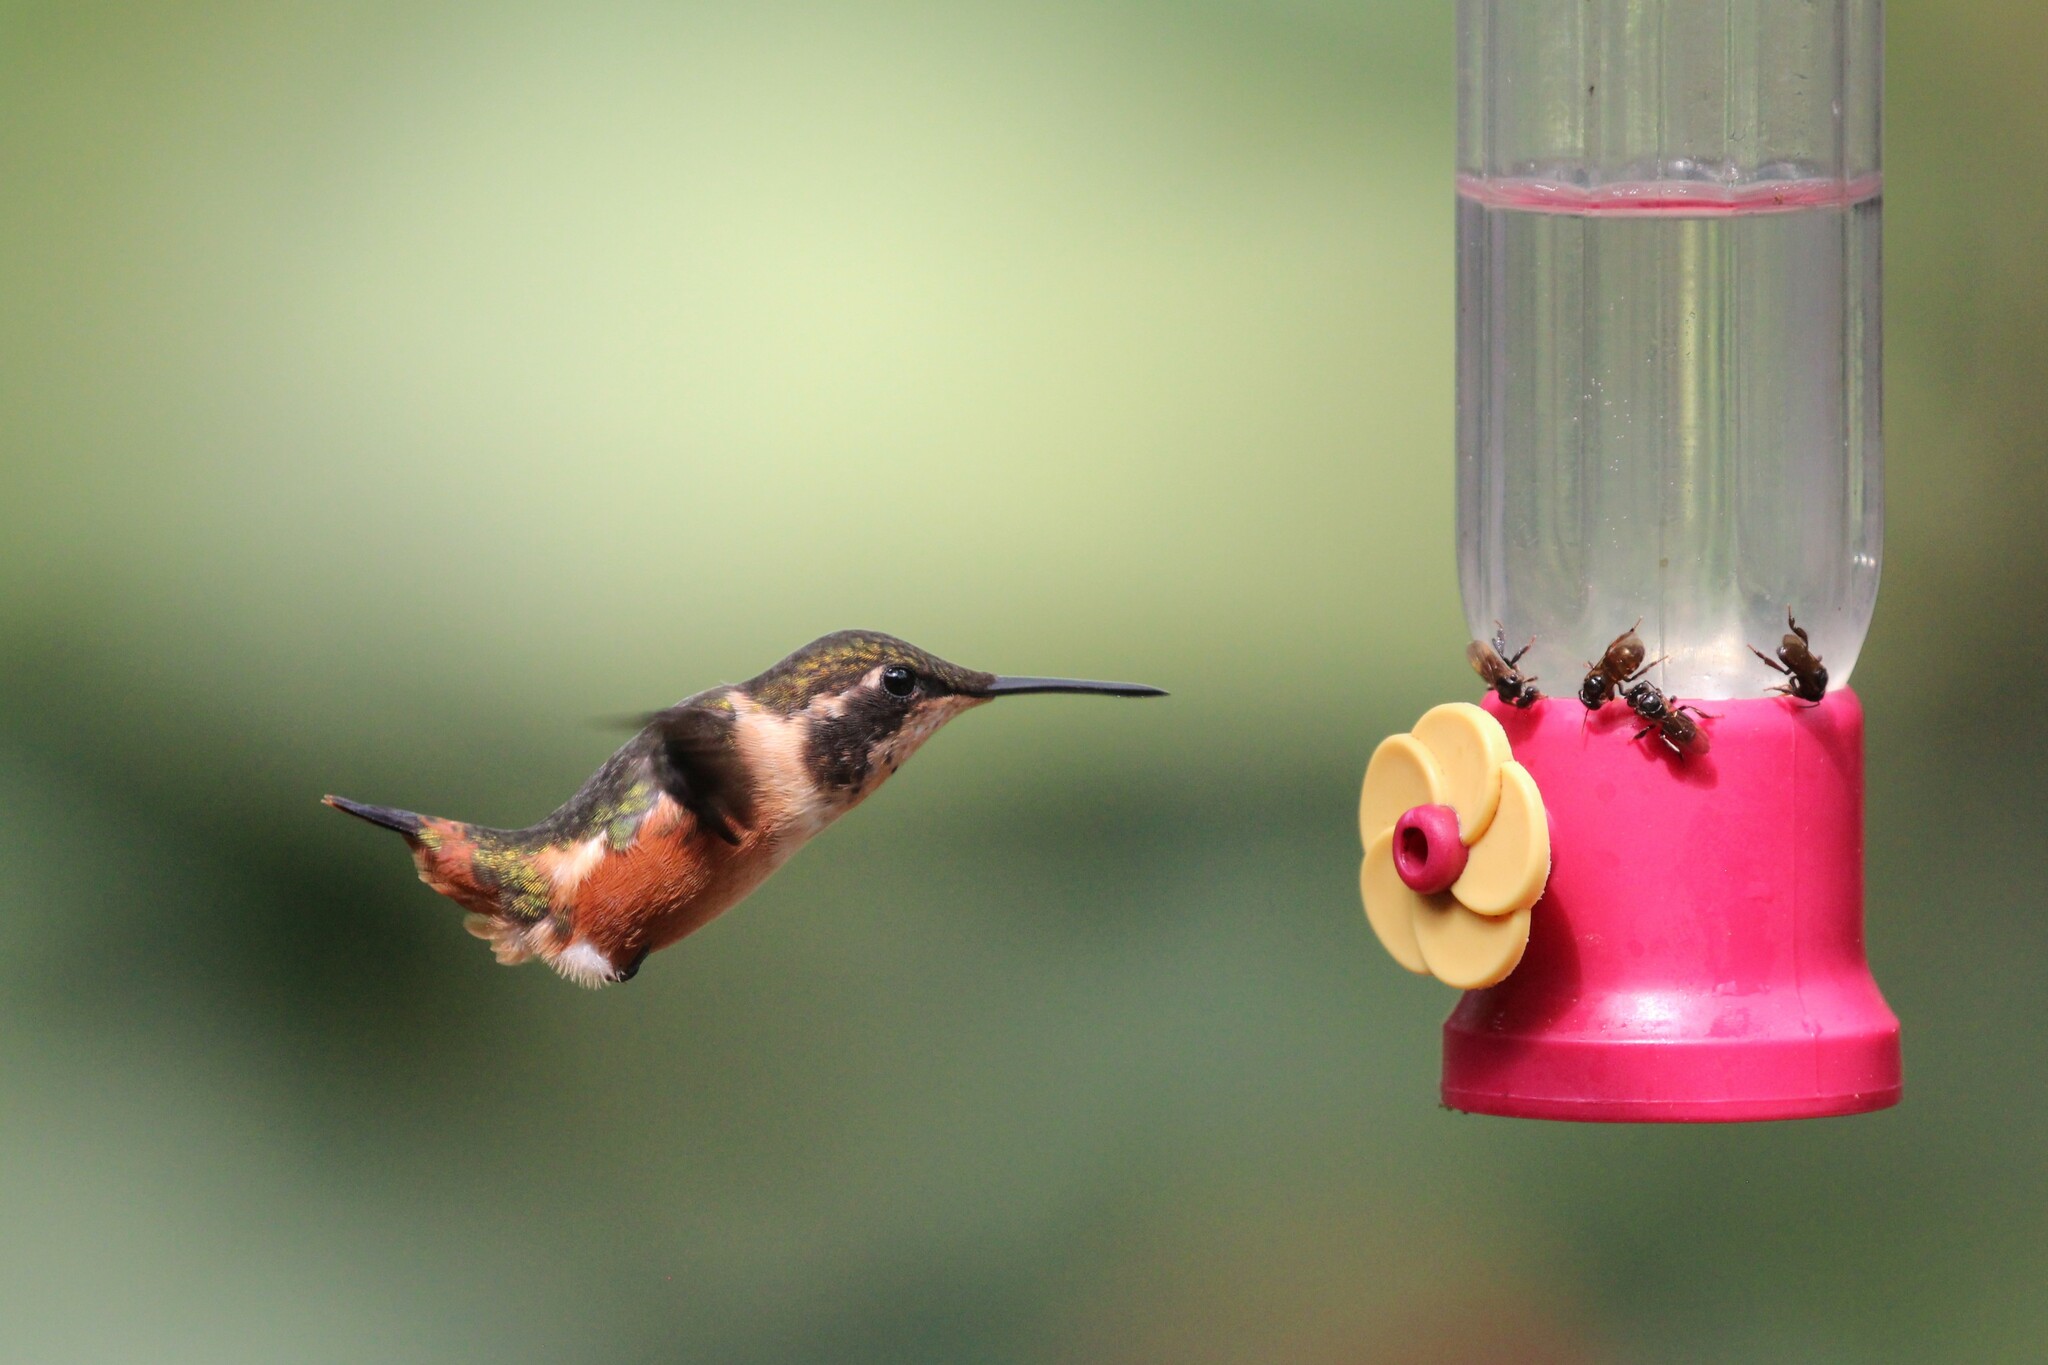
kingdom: Animalia
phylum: Chordata
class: Aves
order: Apodiformes
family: Trochilidae
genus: Calliphlox
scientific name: Calliphlox mitchellii
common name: Purple-throated woodstar
